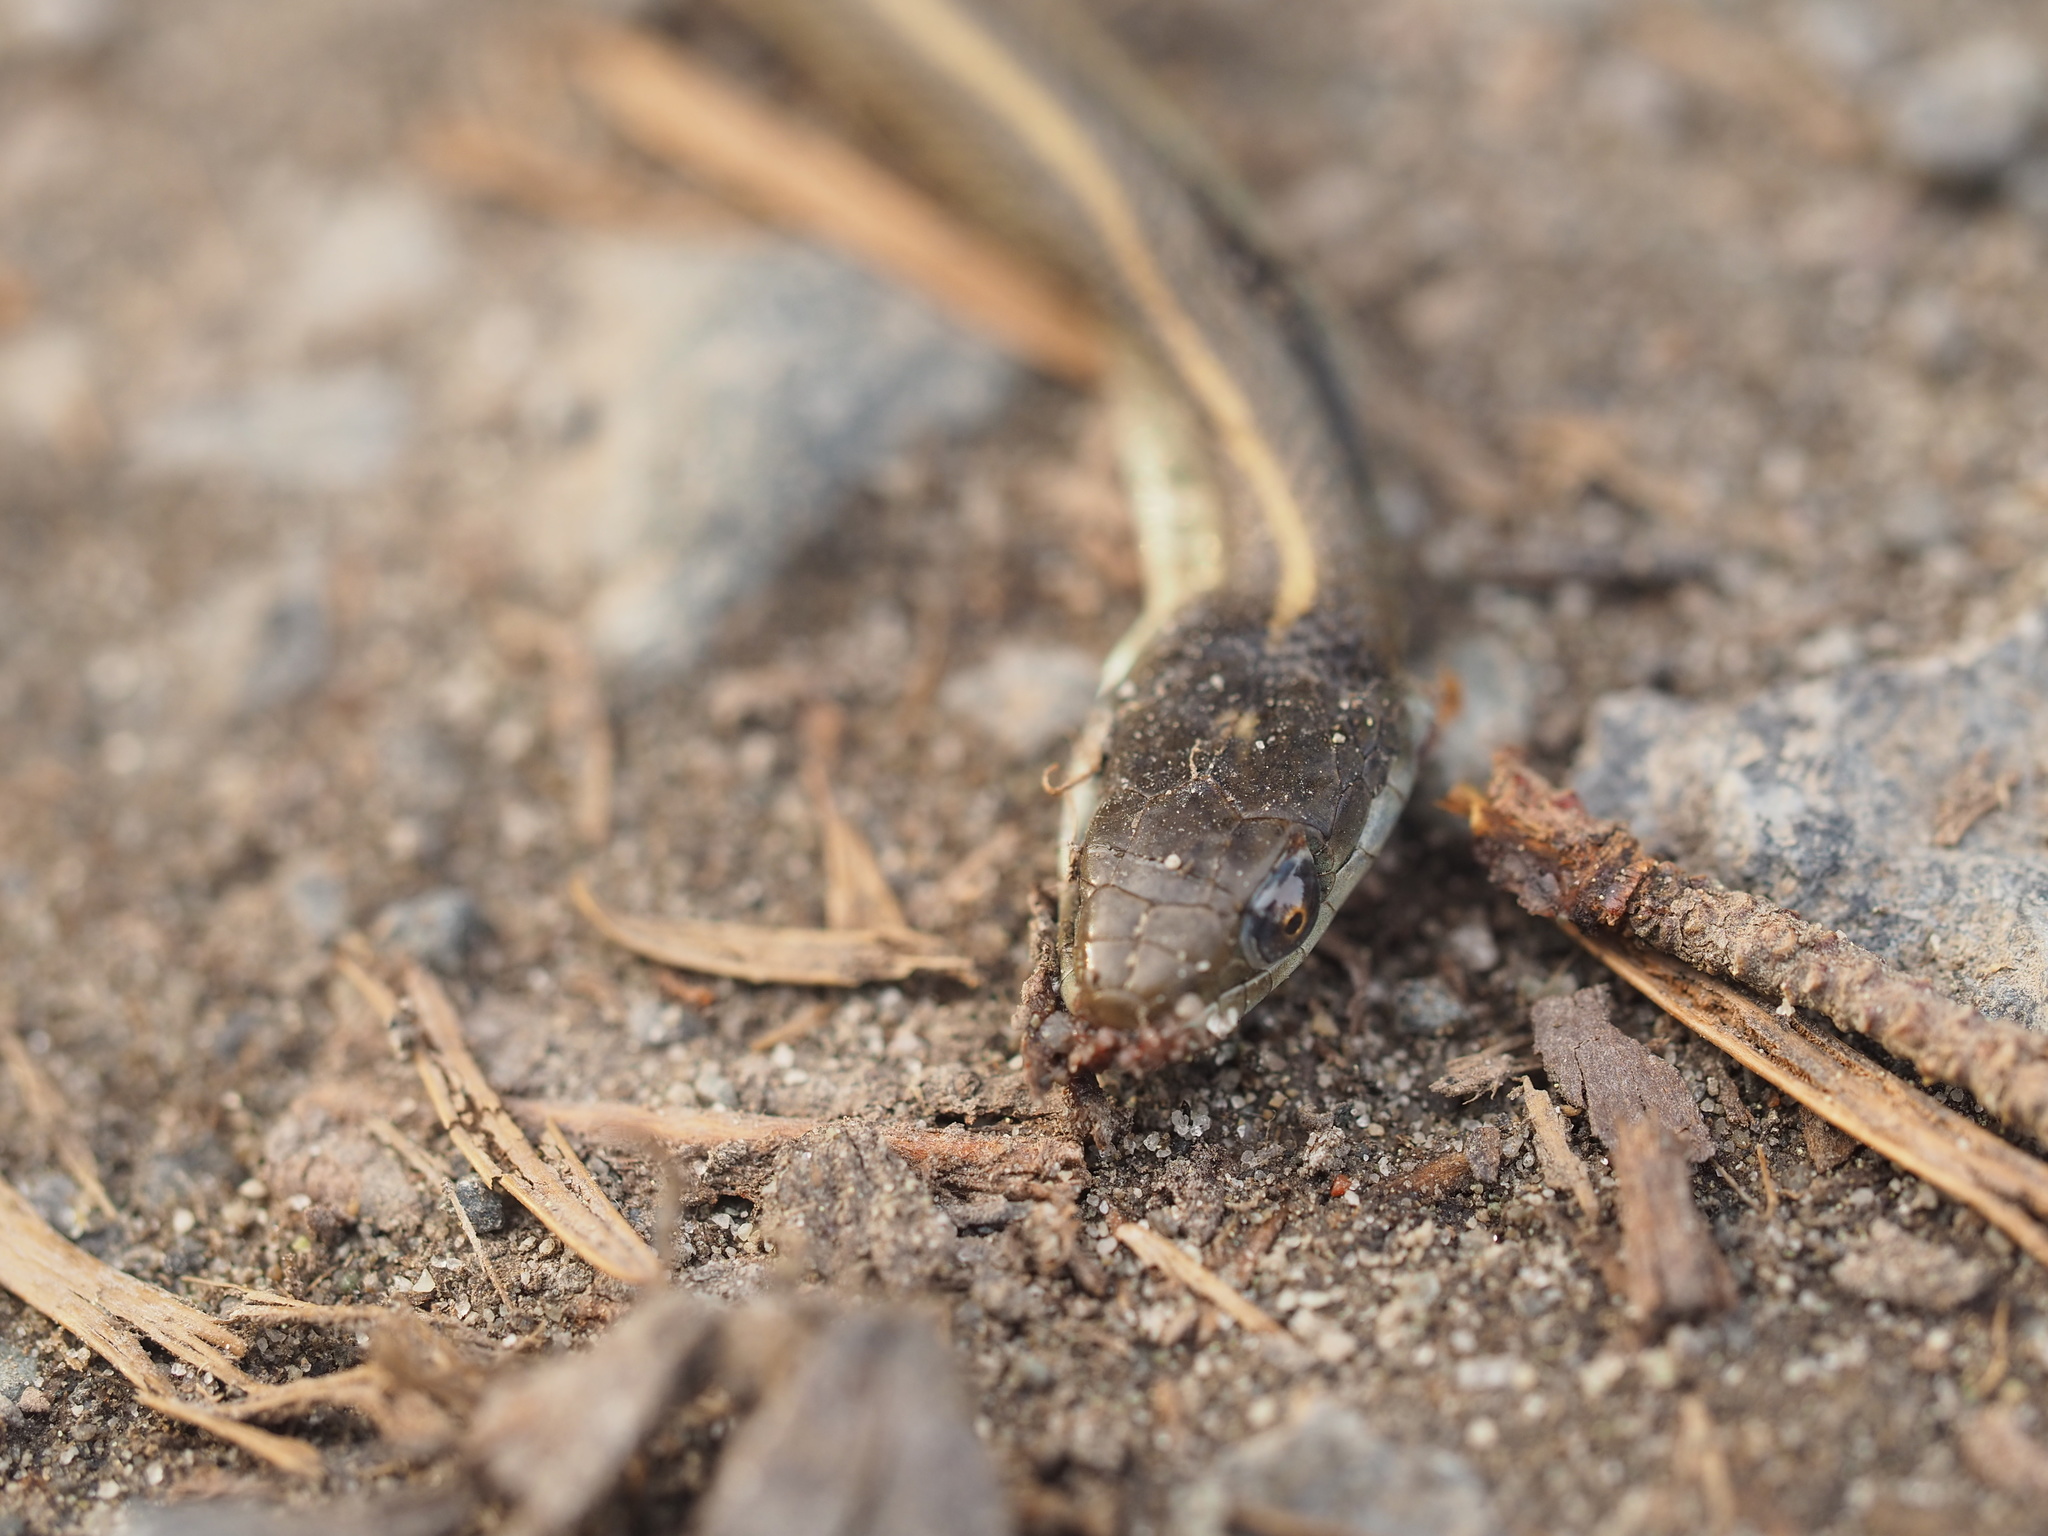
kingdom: Animalia
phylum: Chordata
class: Squamata
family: Colubridae
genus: Thamnophis
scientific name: Thamnophis elegans
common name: Western terrestrial garter snake
